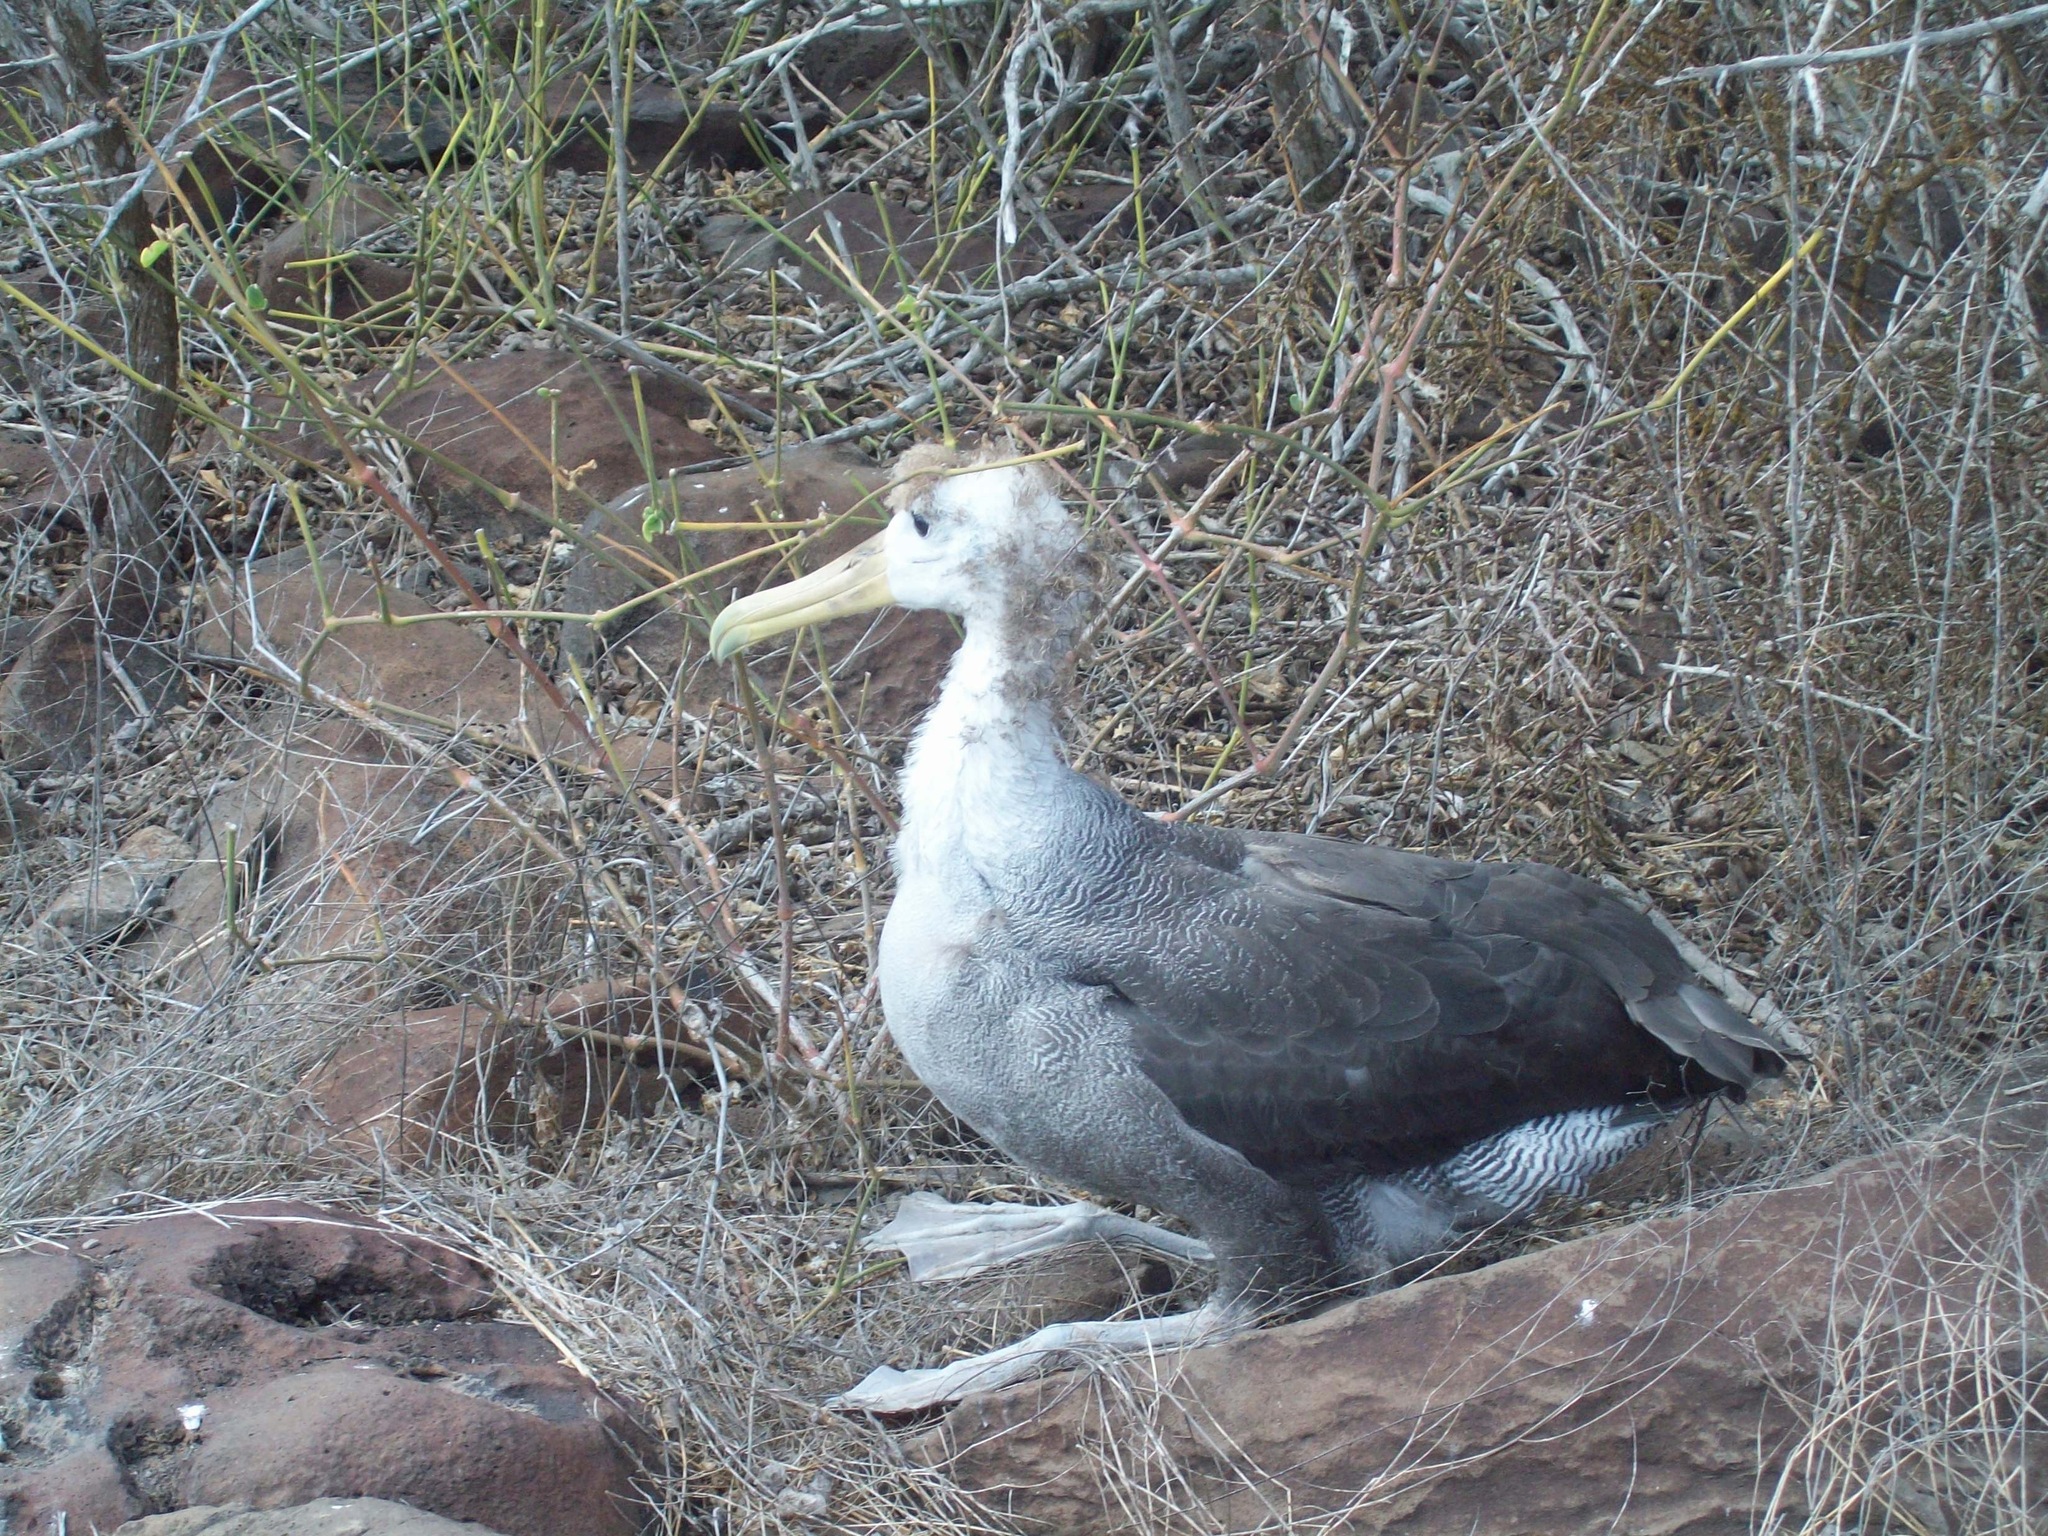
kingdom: Animalia
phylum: Chordata
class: Aves
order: Procellariiformes
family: Diomedeidae
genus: Phoebastria
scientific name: Phoebastria irrorata
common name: Waved albatross
